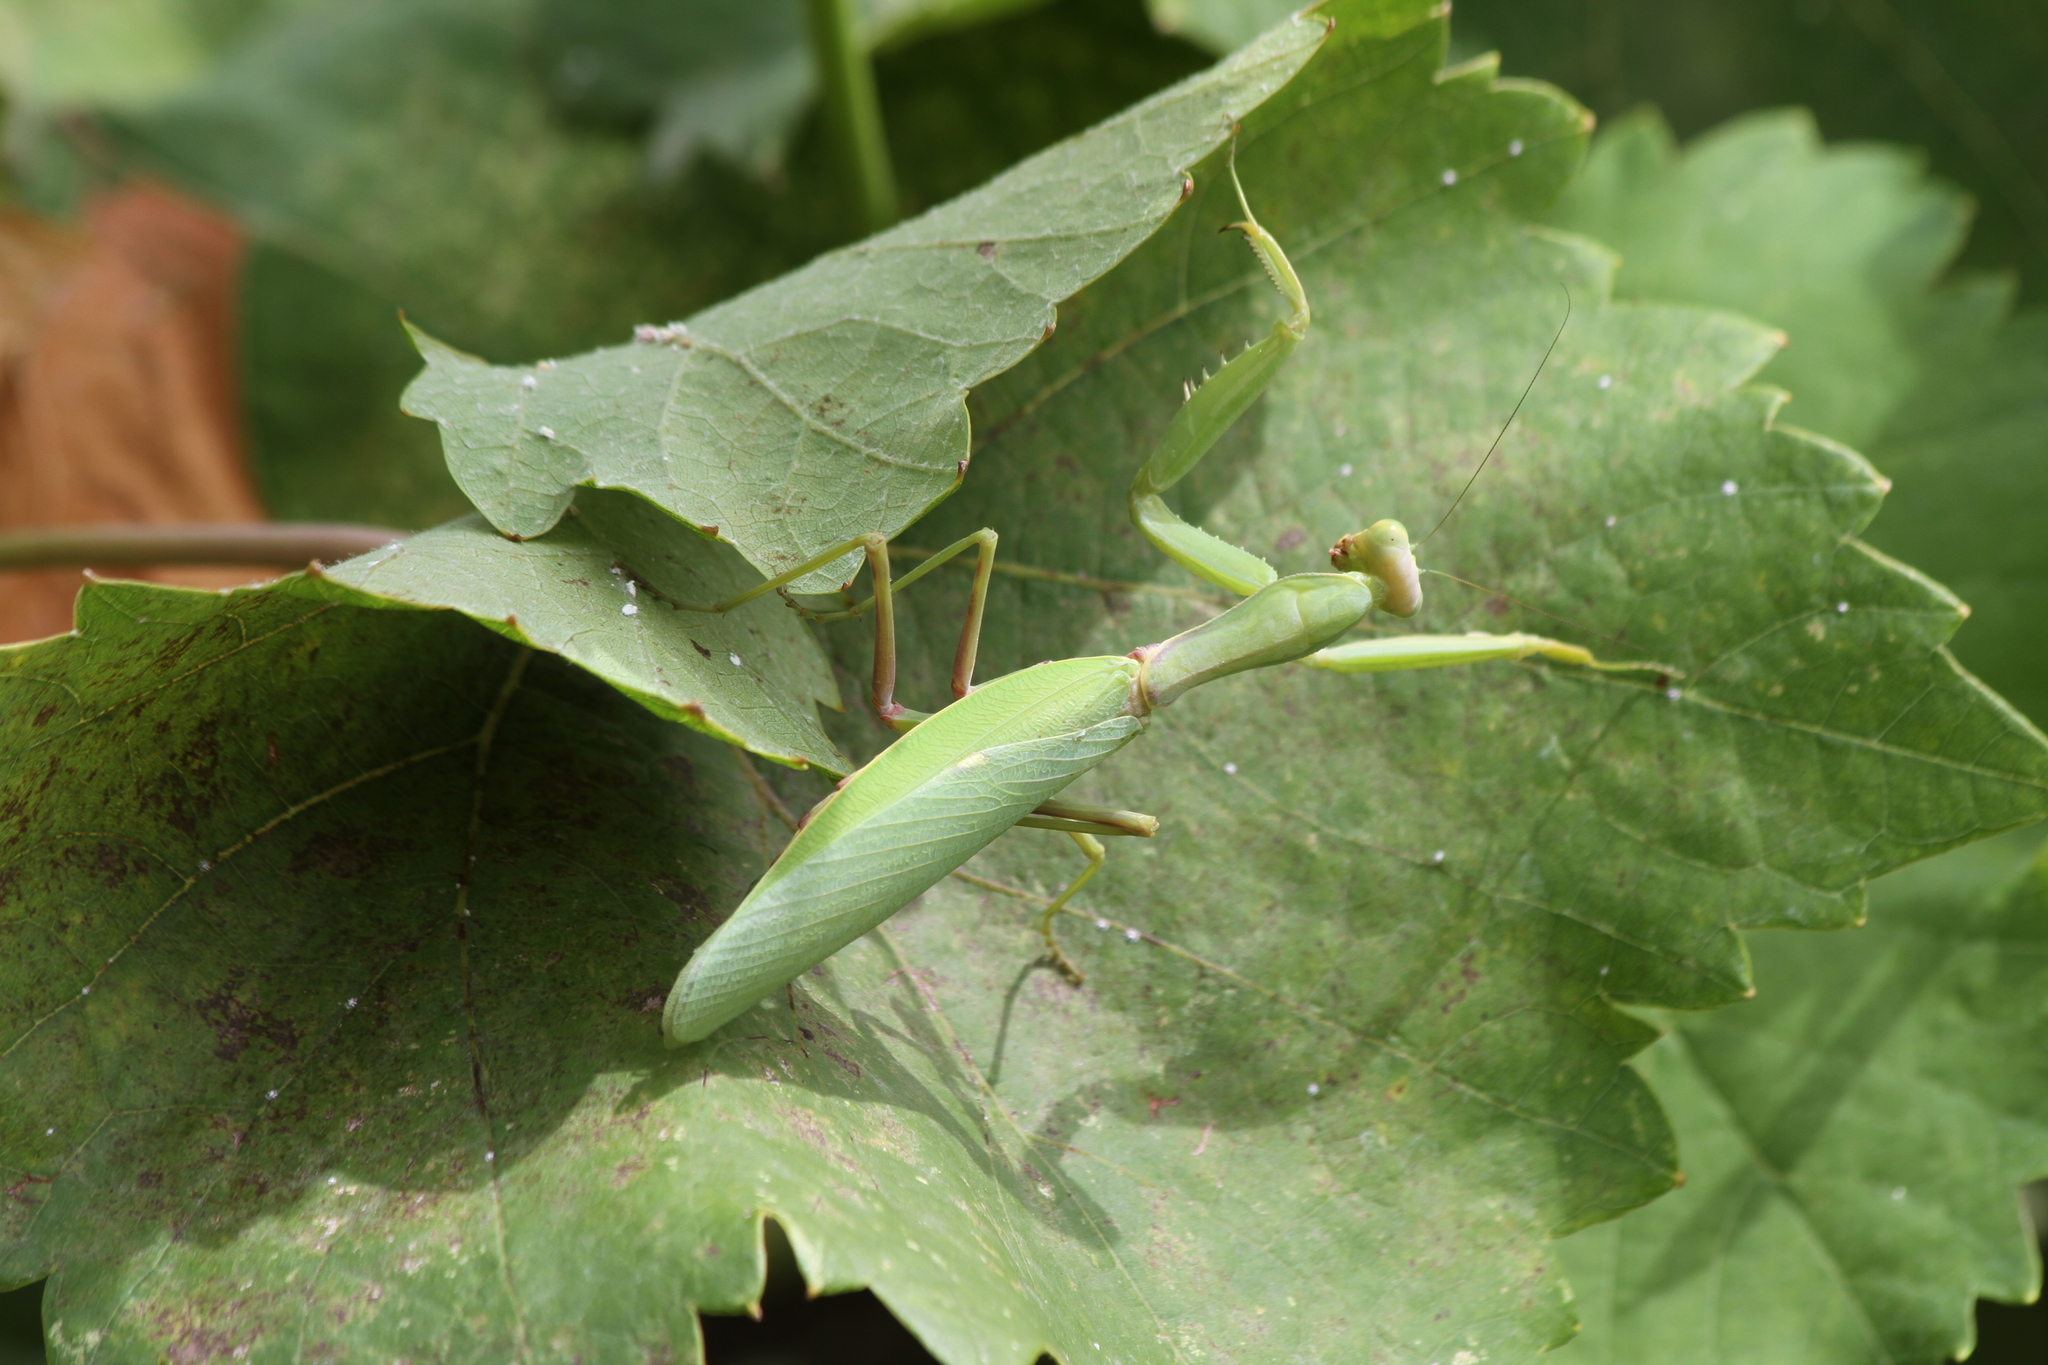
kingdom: Animalia
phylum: Arthropoda
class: Insecta
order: Mantodea
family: Mantidae
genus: Hierodula
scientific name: Hierodula transcaucasica
